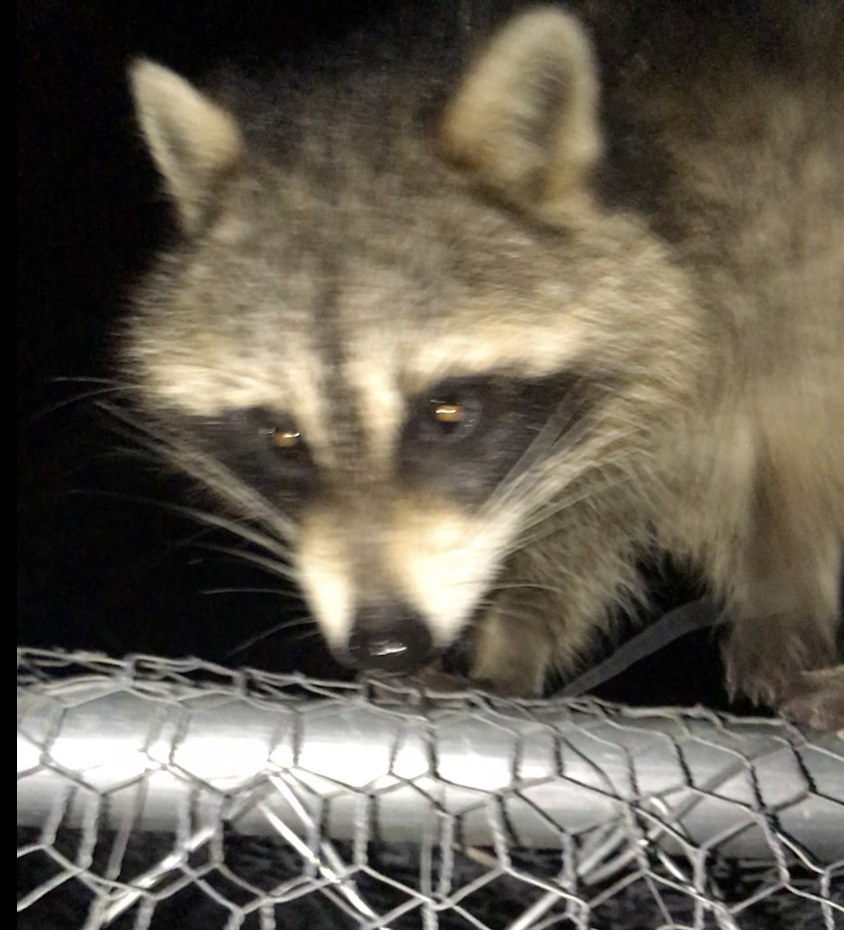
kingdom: Animalia
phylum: Chordata
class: Mammalia
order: Carnivora
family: Procyonidae
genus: Procyon
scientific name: Procyon lotor
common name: Raccoon
